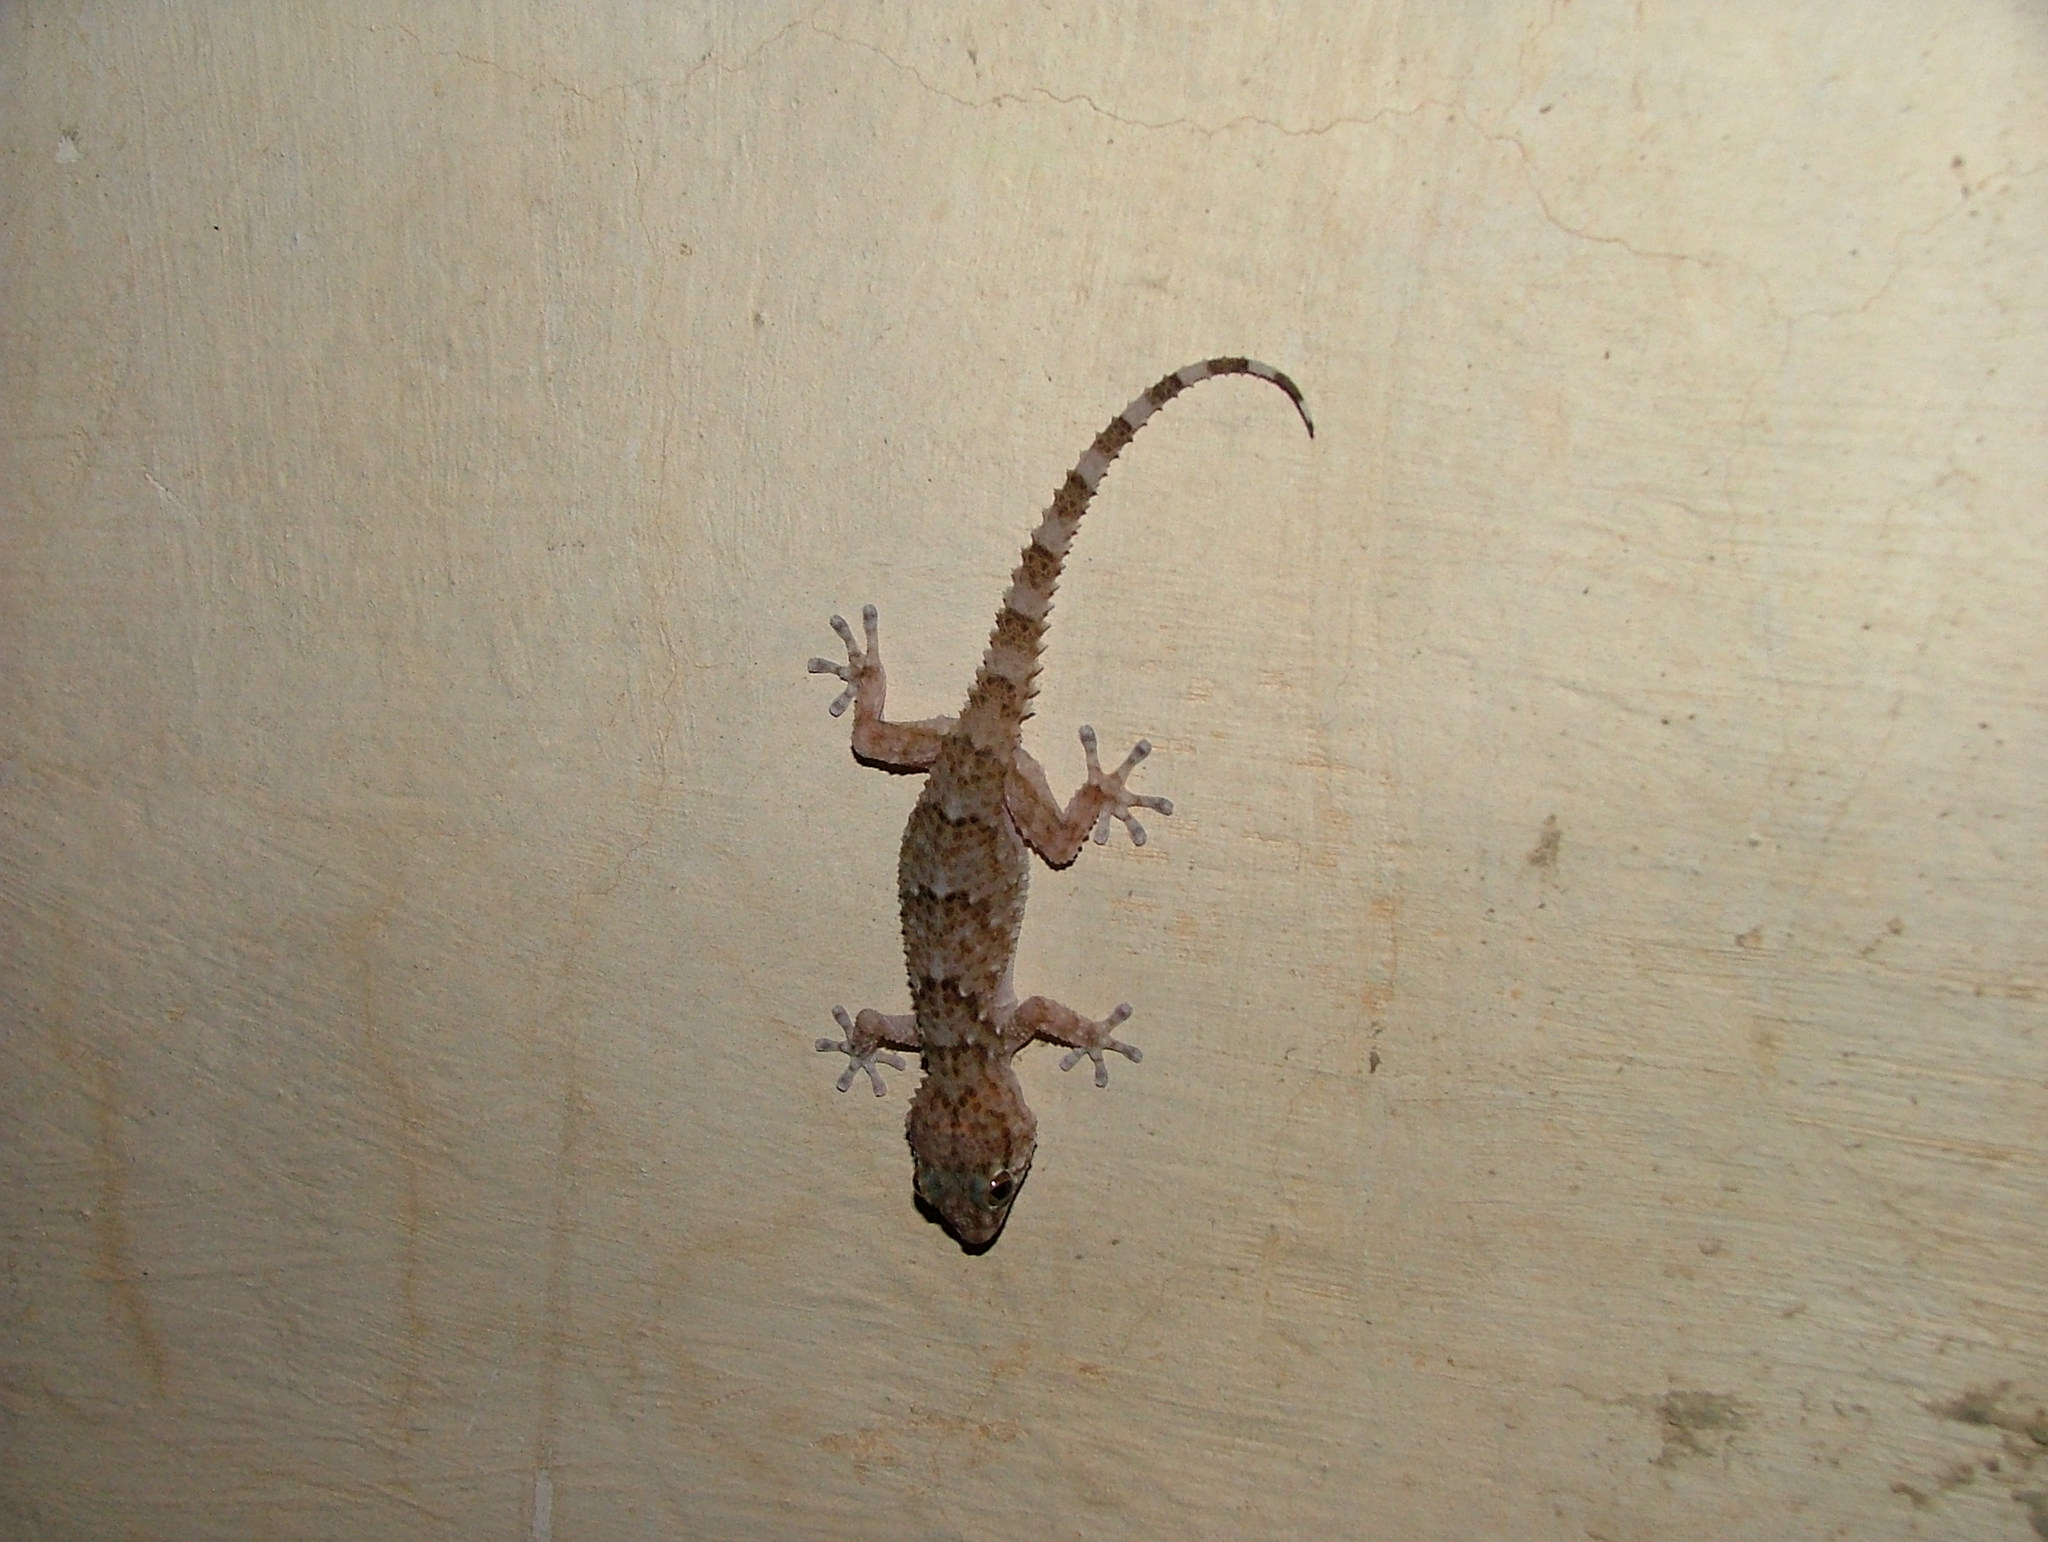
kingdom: Animalia
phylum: Chordata
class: Squamata
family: Gekkonidae
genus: Chondrodactylus
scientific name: Chondrodactylus bibronii
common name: Bibron's gecko
